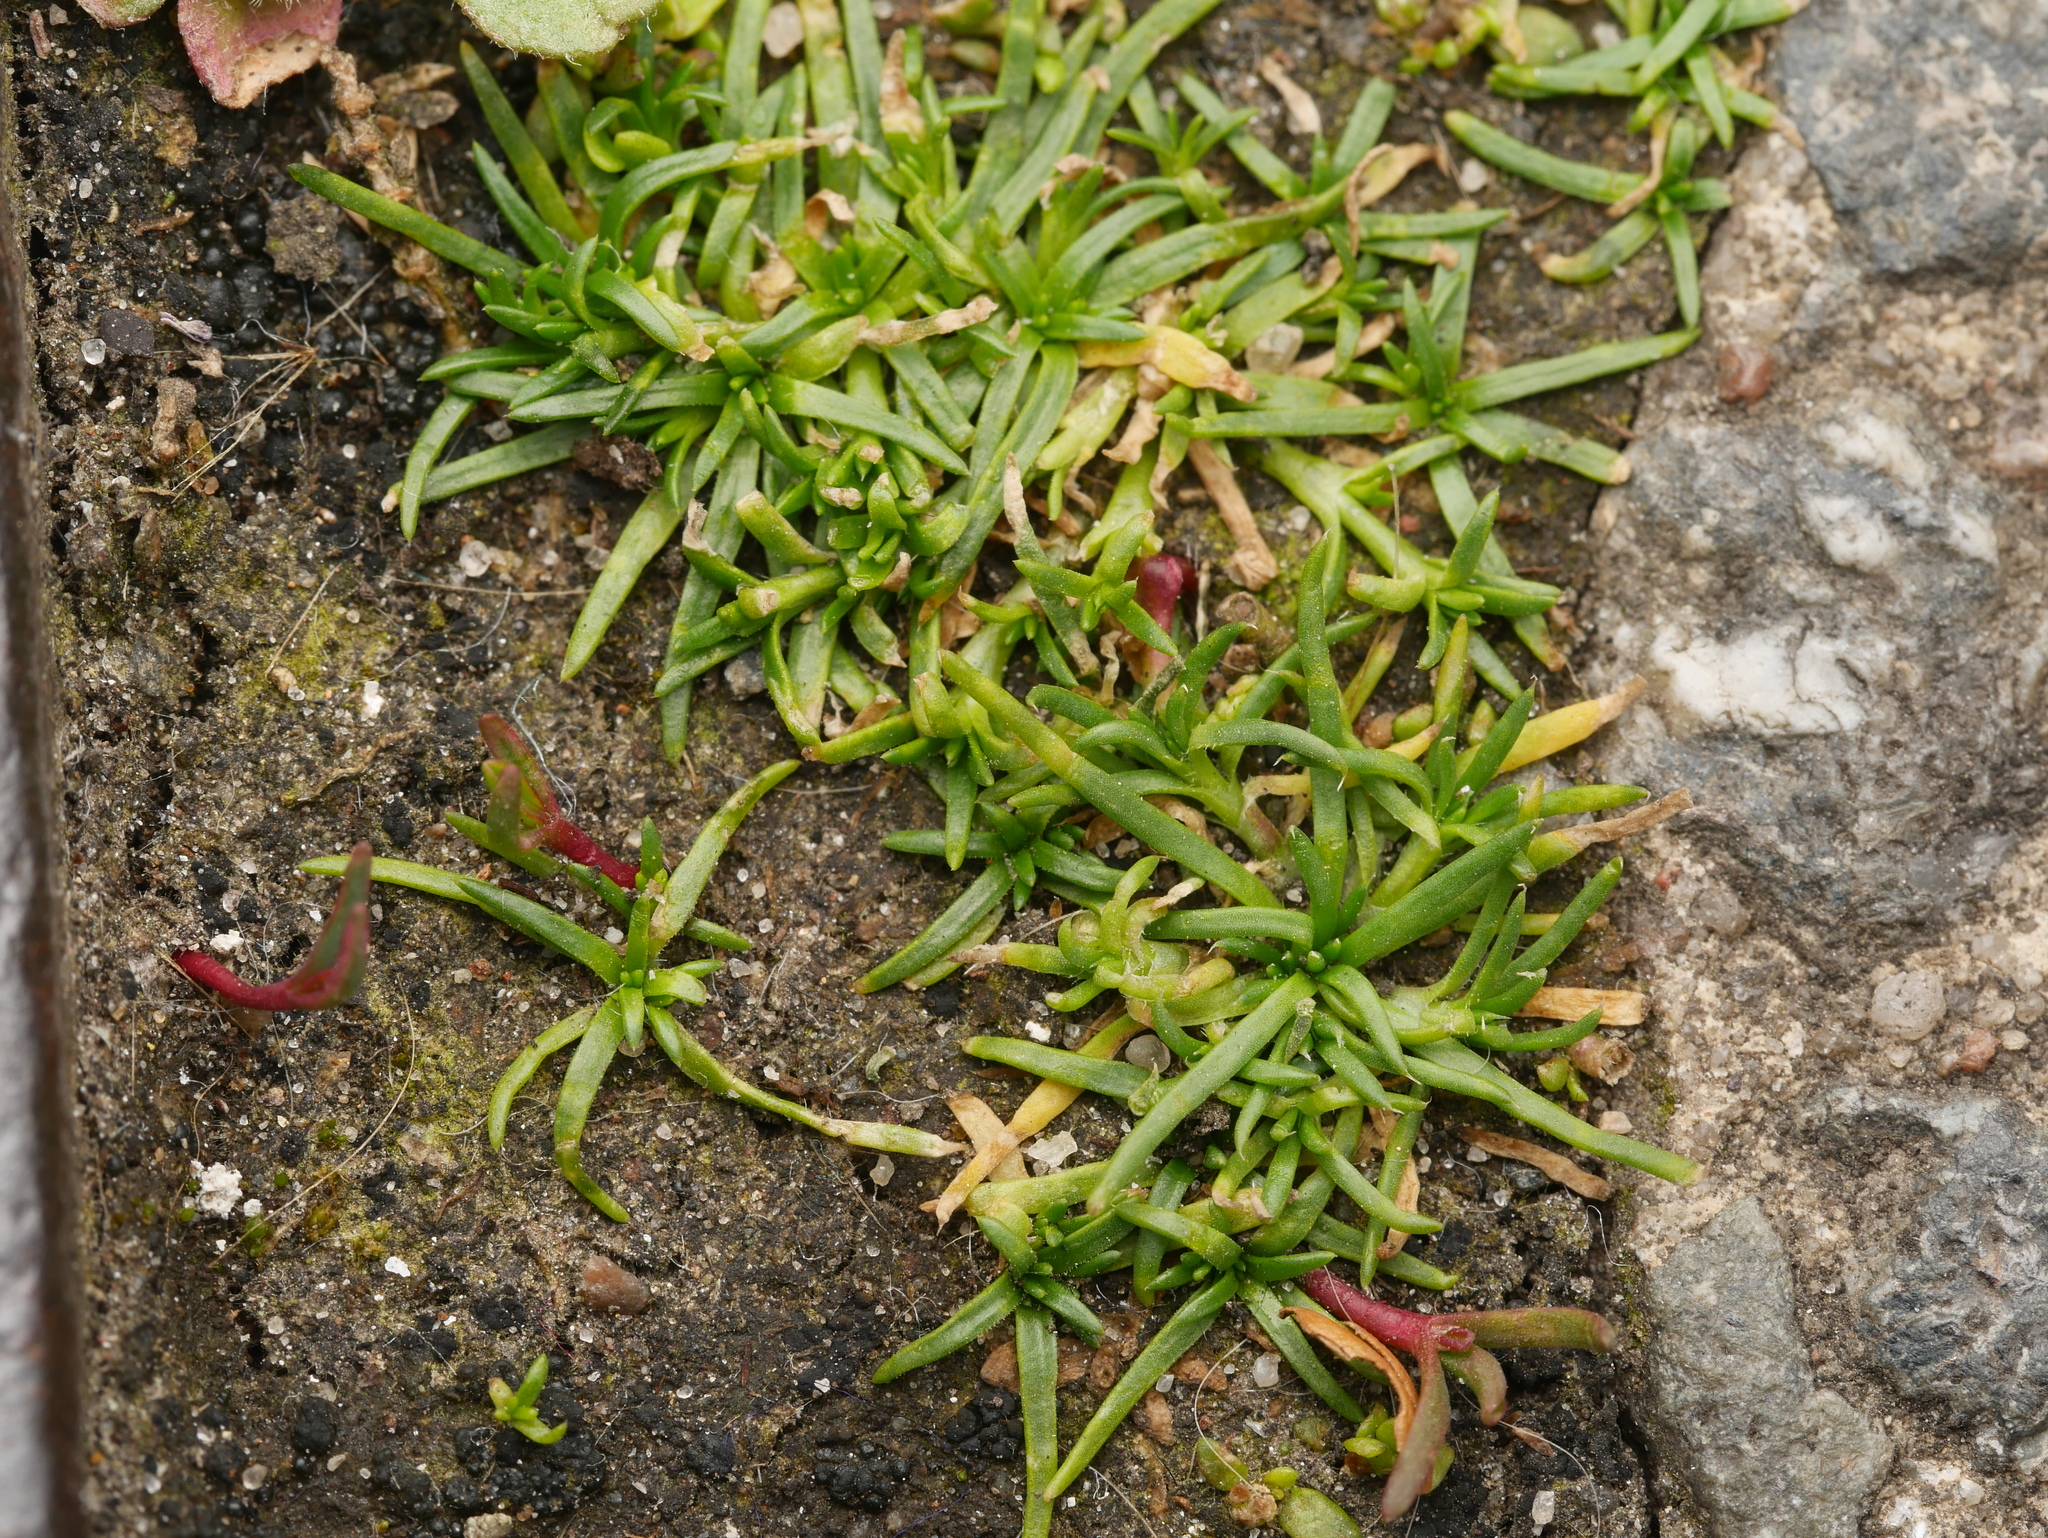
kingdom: Plantae
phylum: Tracheophyta
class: Magnoliopsida
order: Caryophyllales
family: Caryophyllaceae
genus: Sagina
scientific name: Sagina procumbens
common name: Procumbent pearlwort
